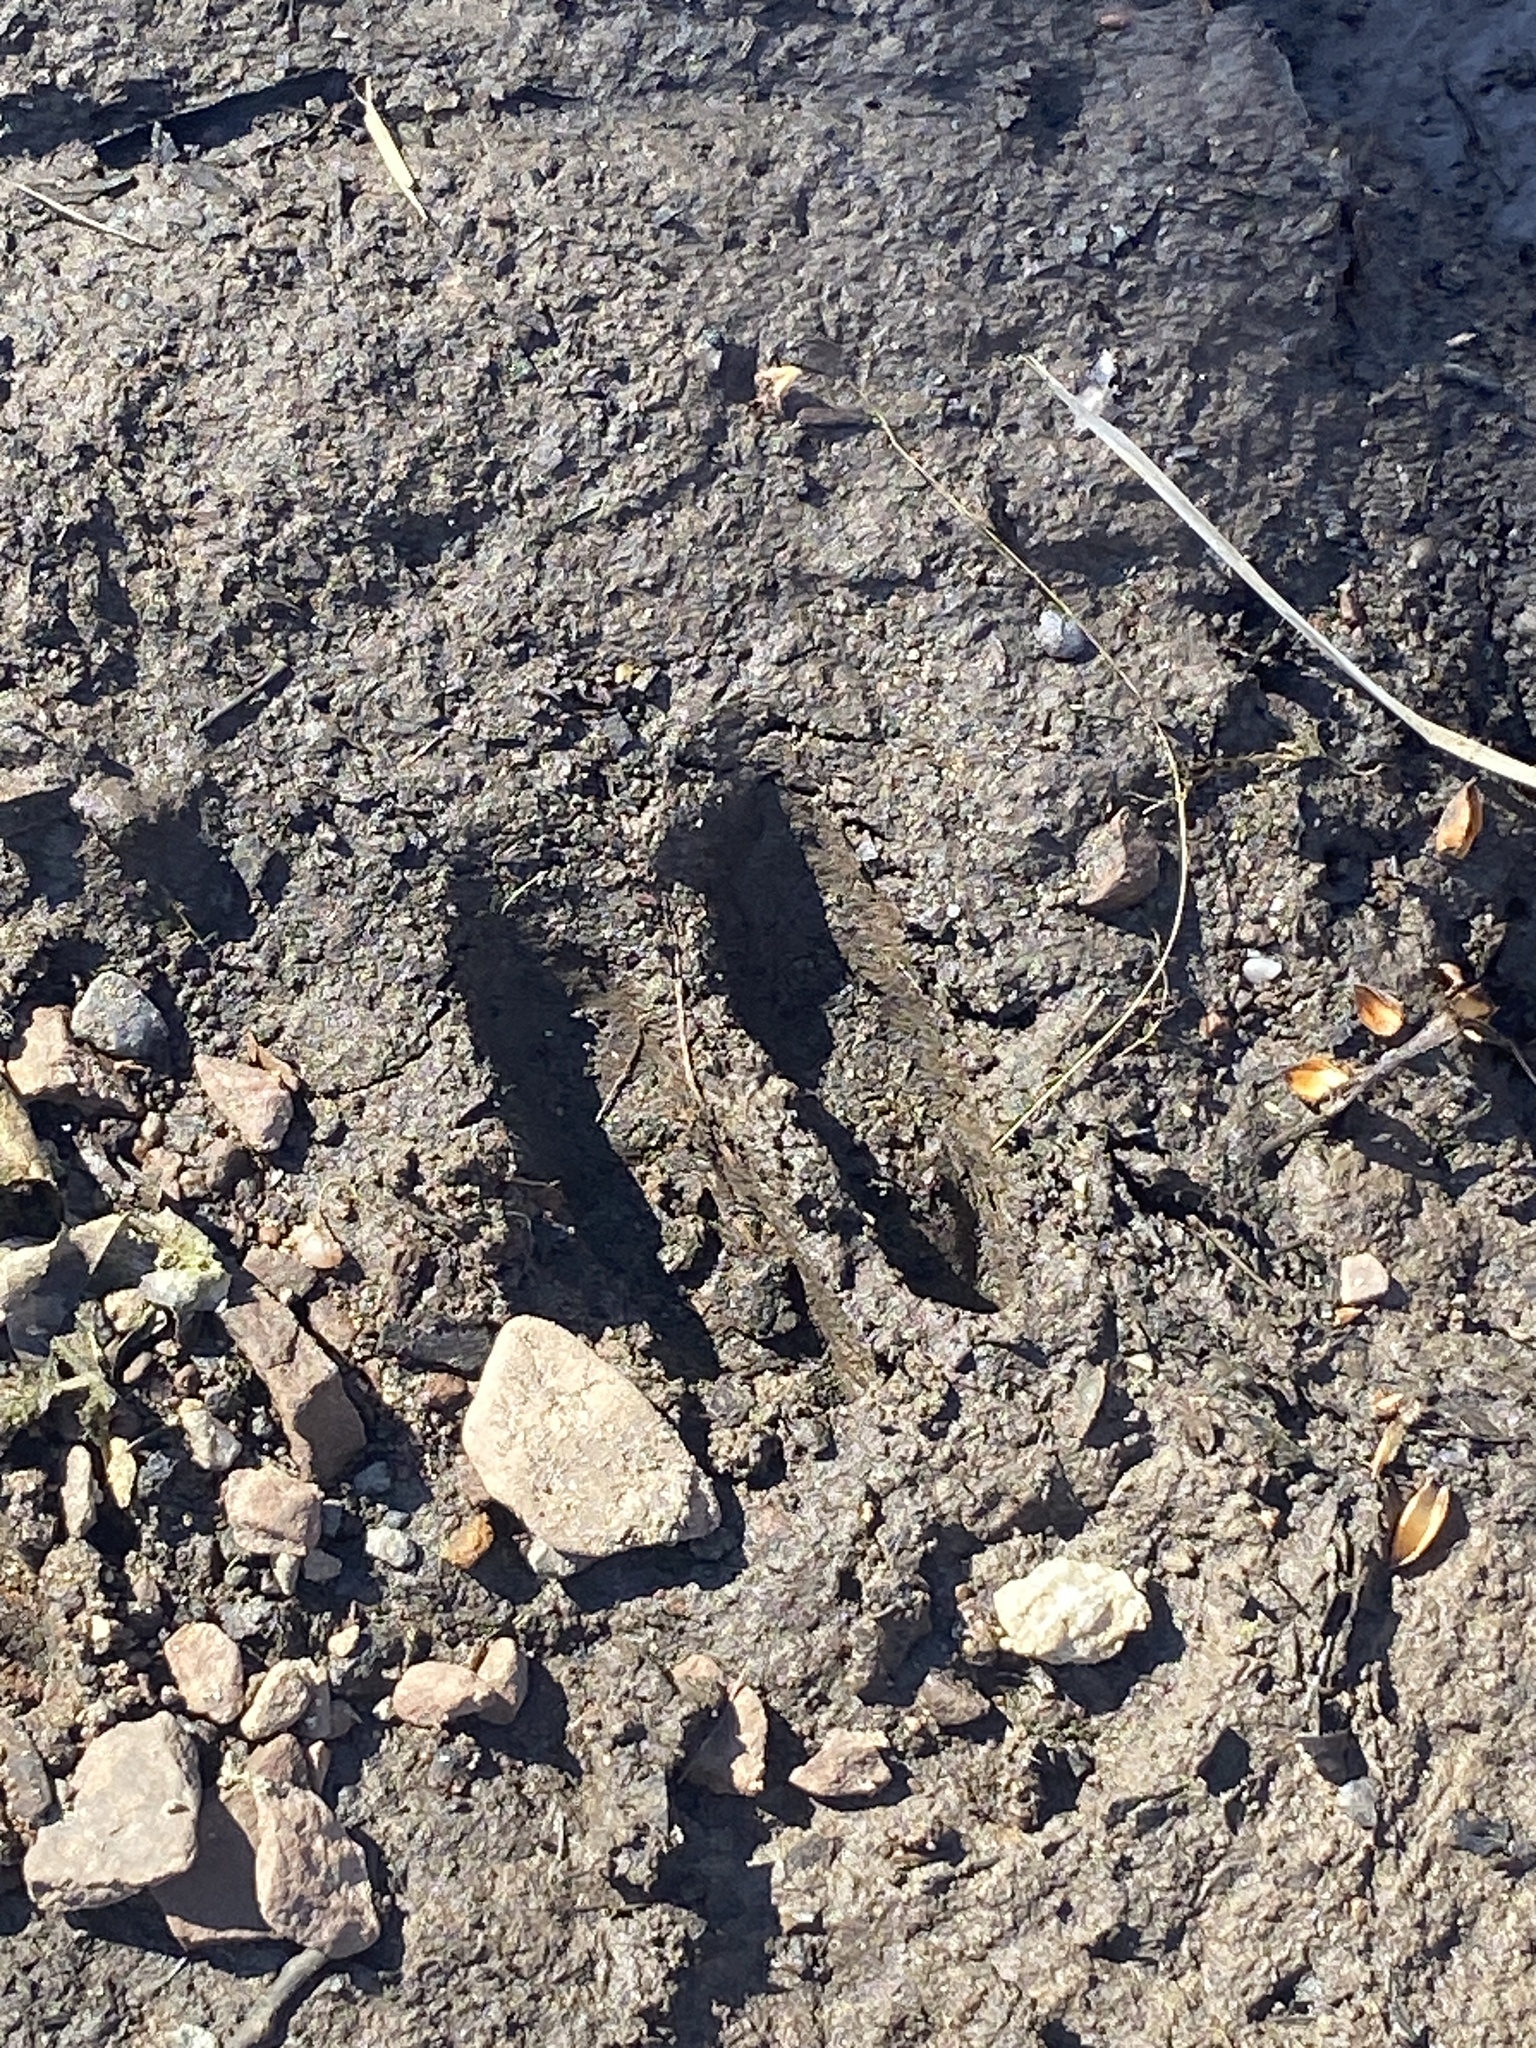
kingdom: Animalia
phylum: Chordata
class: Mammalia
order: Artiodactyla
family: Cervidae
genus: Odocoileus
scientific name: Odocoileus virginianus
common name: White-tailed deer
